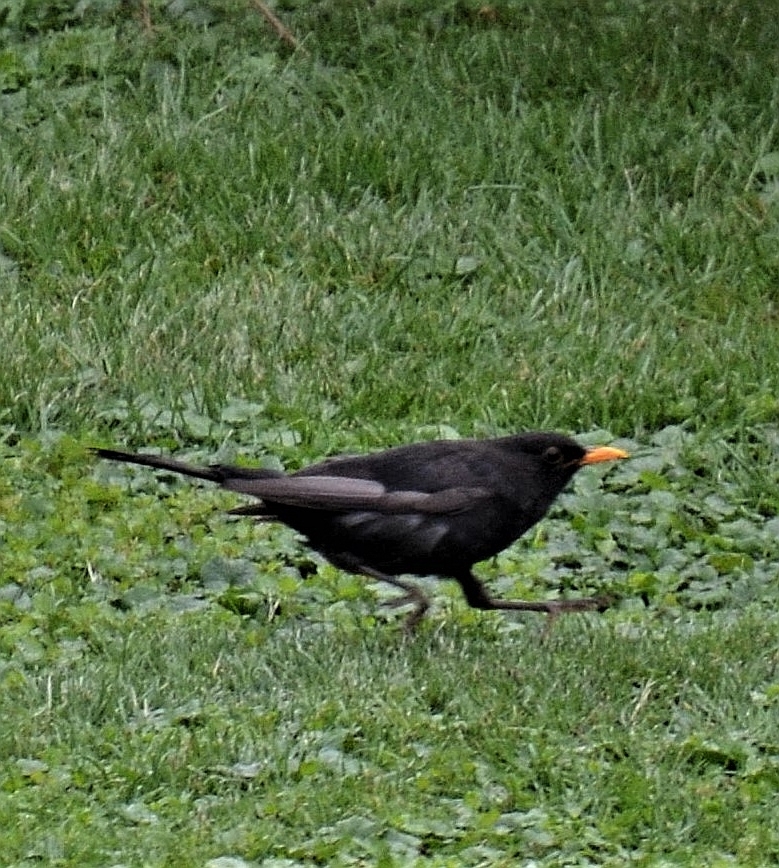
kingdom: Animalia
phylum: Chordata
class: Aves
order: Passeriformes
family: Turdidae
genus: Turdus
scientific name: Turdus merula
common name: Common blackbird
